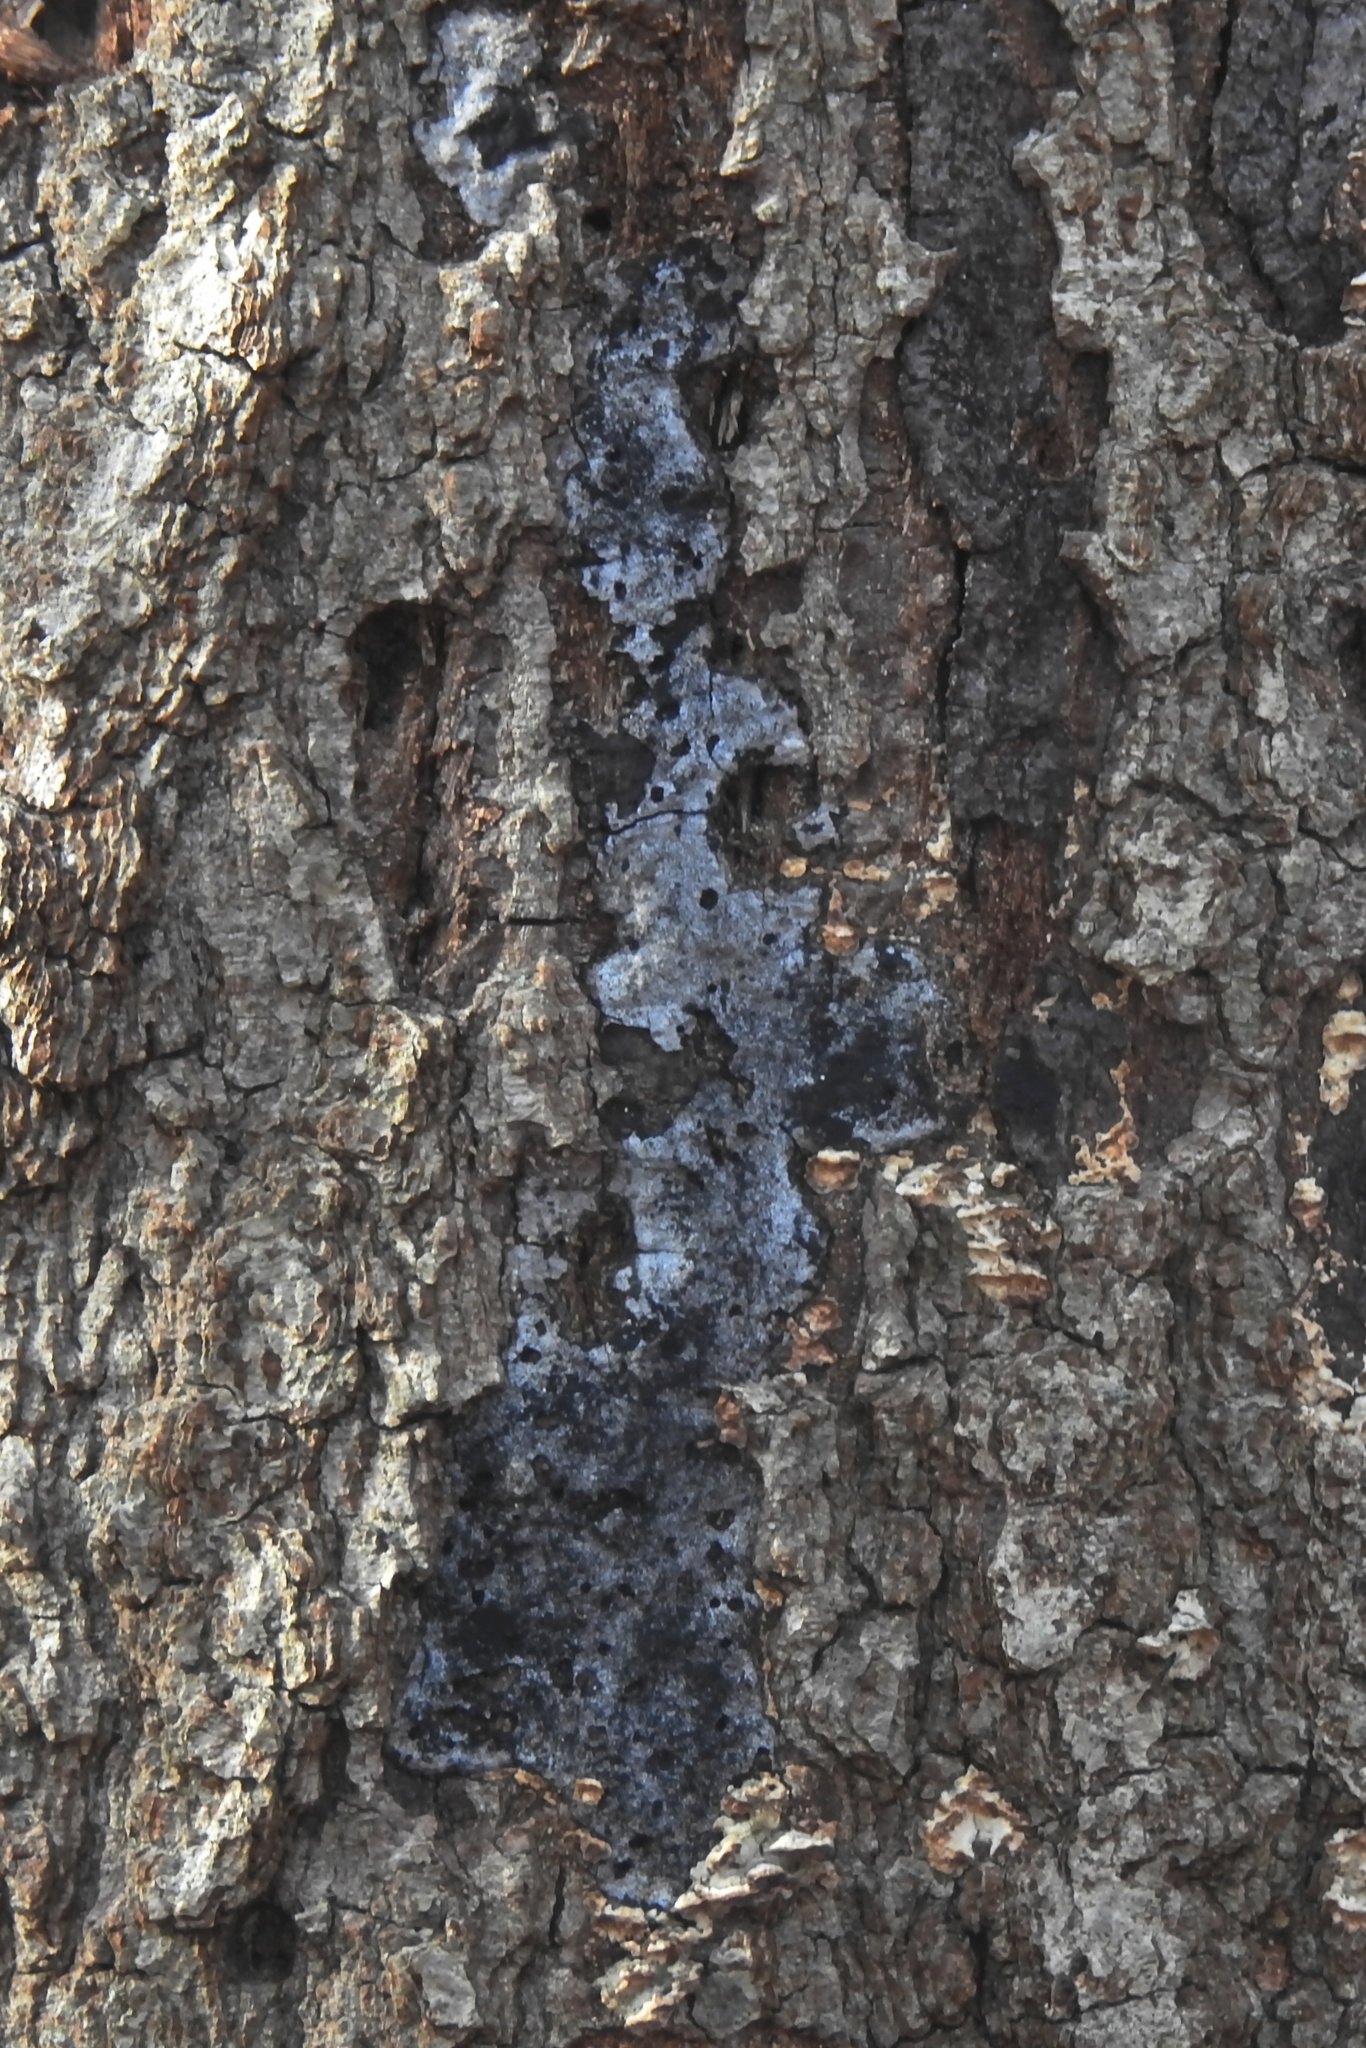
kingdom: Fungi
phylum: Ascomycota
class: Sordariomycetes
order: Xylariales
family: Graphostromataceae
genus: Biscogniauxia
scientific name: Biscogniauxia atropunctata
